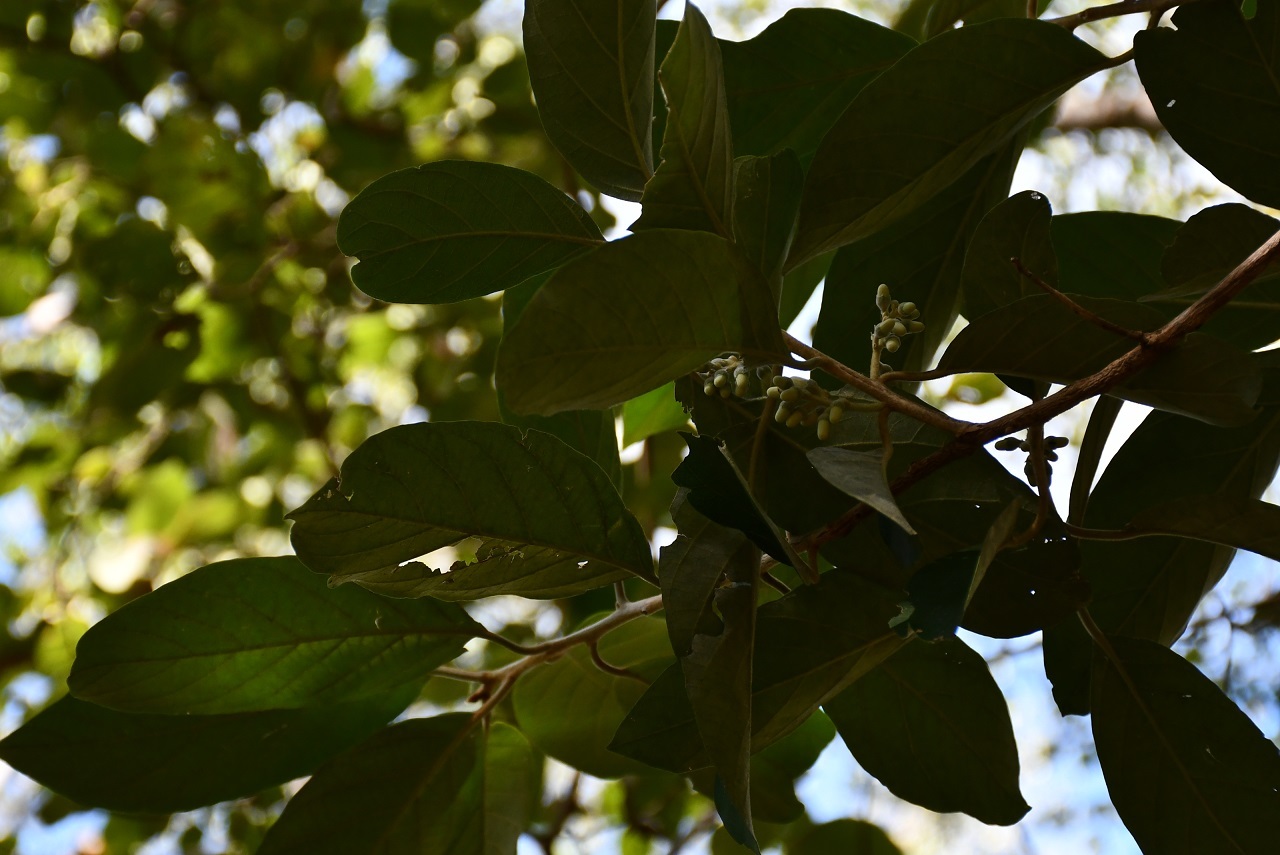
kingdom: Plantae
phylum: Tracheophyta
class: Magnoliopsida
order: Ericales
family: Styracaceae
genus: Styrax
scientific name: Styrax argenteus
